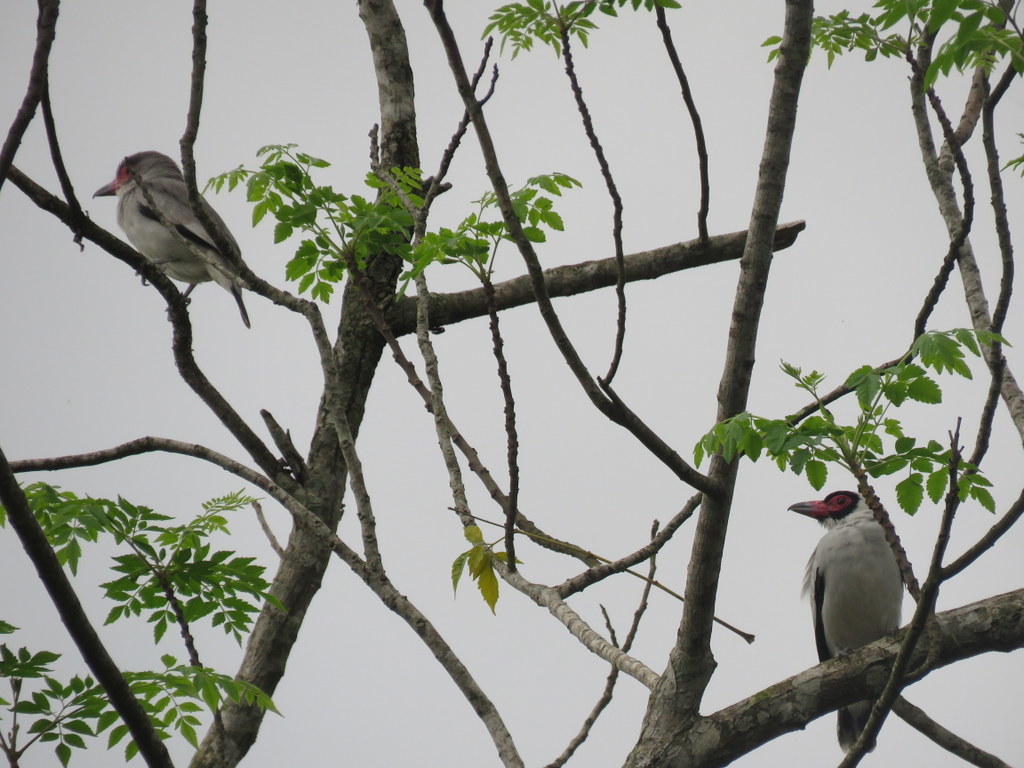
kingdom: Animalia
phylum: Chordata
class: Aves
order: Passeriformes
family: Cotingidae
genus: Tityra
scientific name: Tityra semifasciata
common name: Masked tityra
